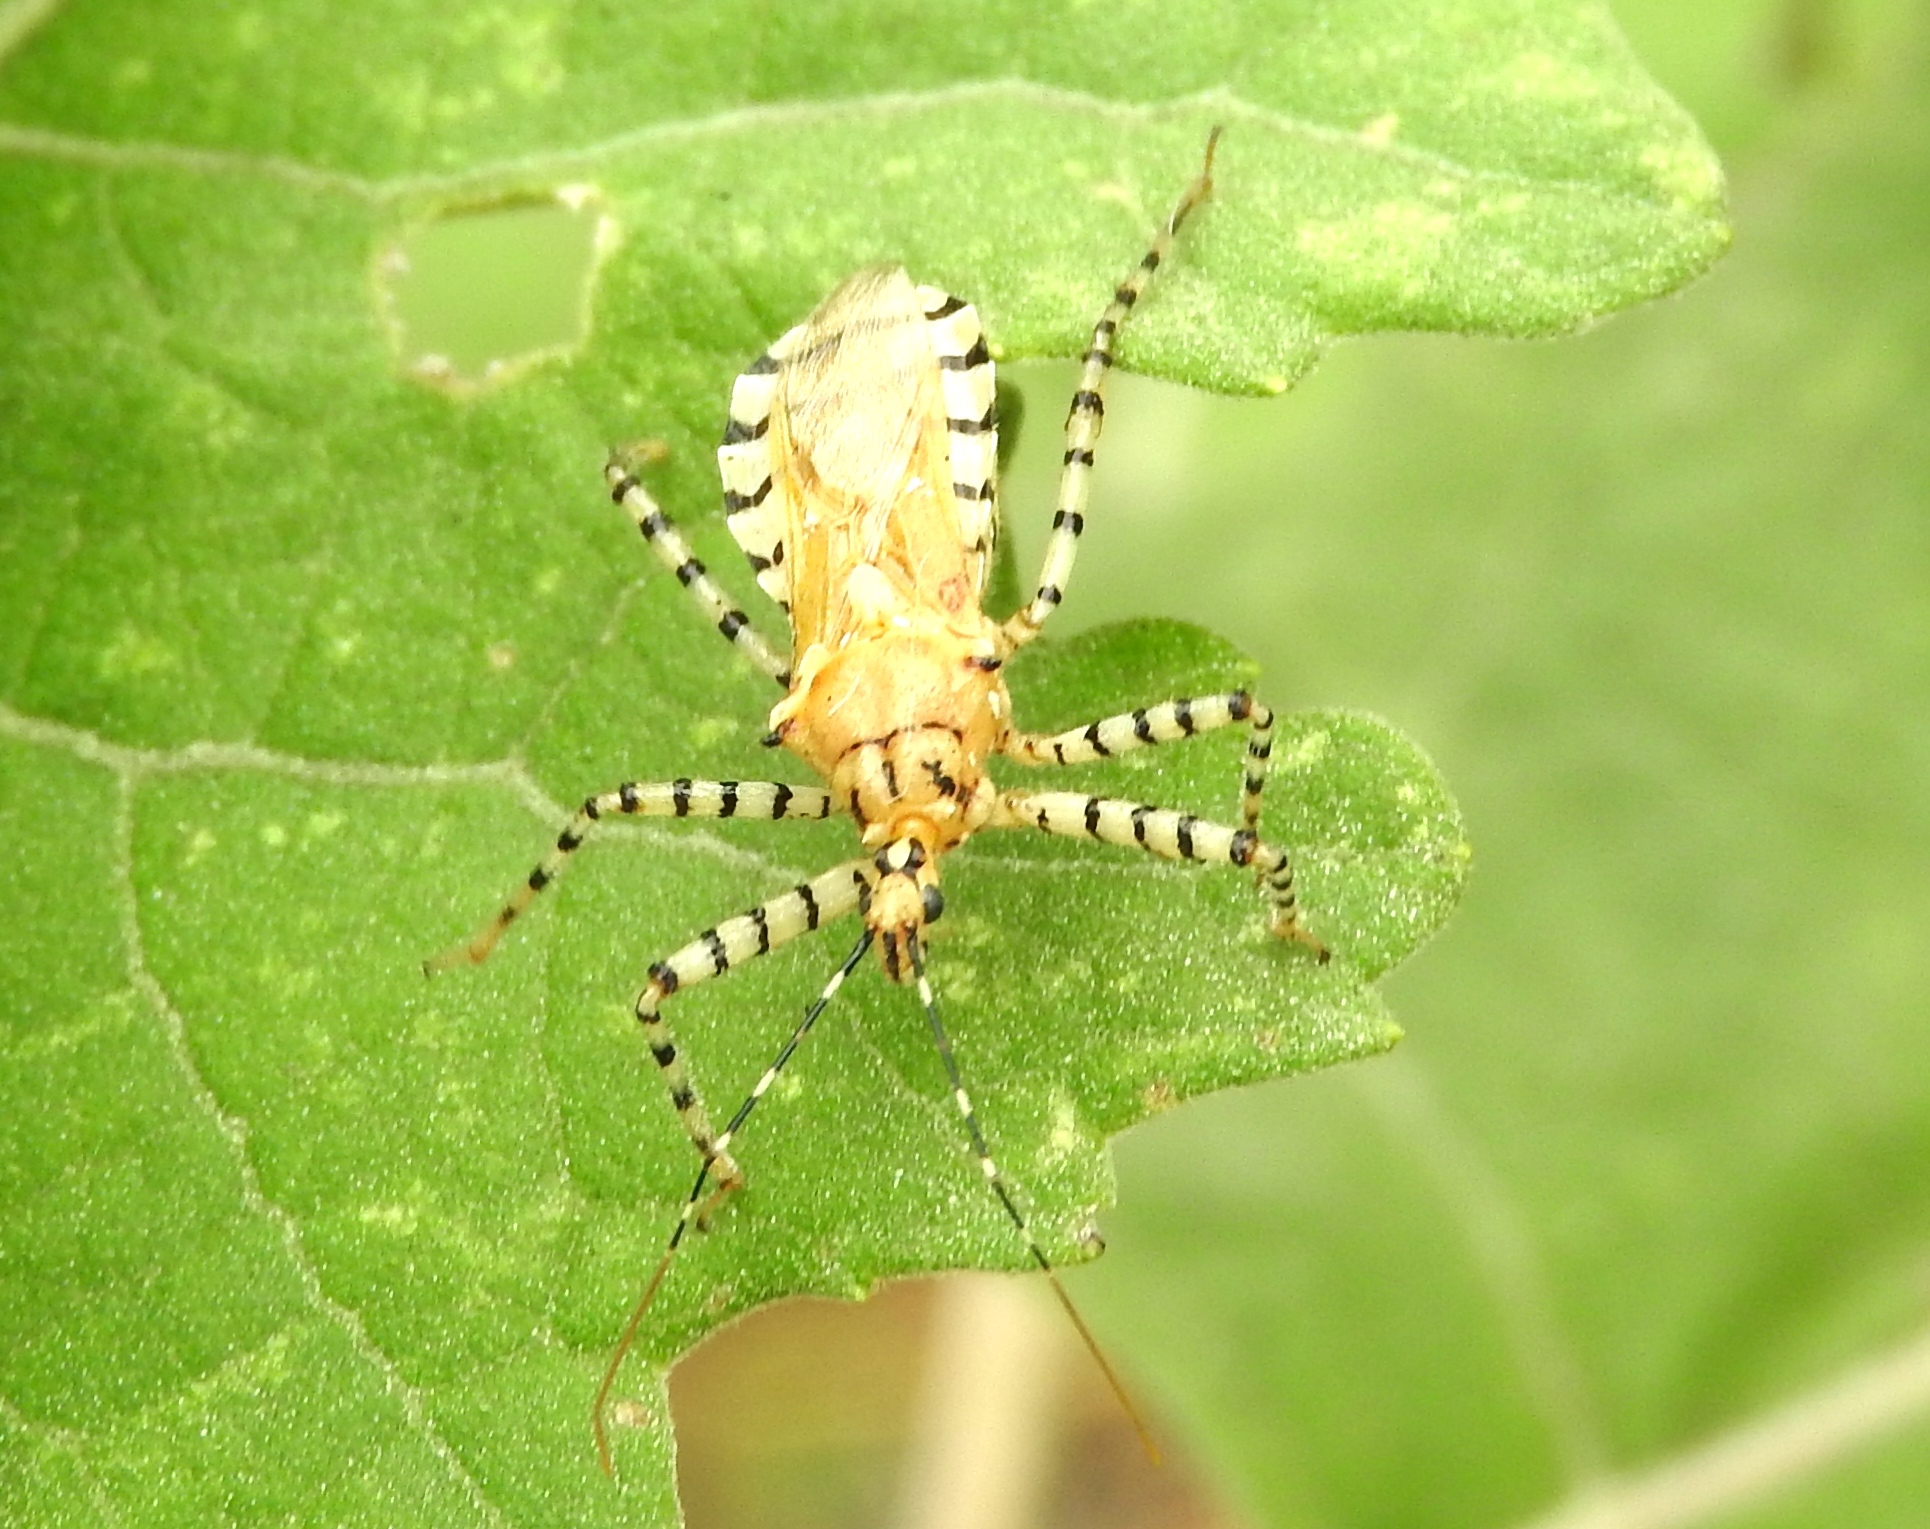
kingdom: Animalia
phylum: Arthropoda
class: Insecta
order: Hemiptera
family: Reduviidae
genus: Pselliopus
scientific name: Pselliopus
